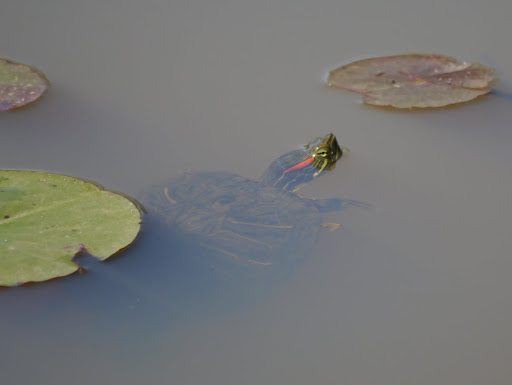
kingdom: Animalia
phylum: Chordata
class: Testudines
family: Emydidae
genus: Trachemys
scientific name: Trachemys scripta
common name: Slider
